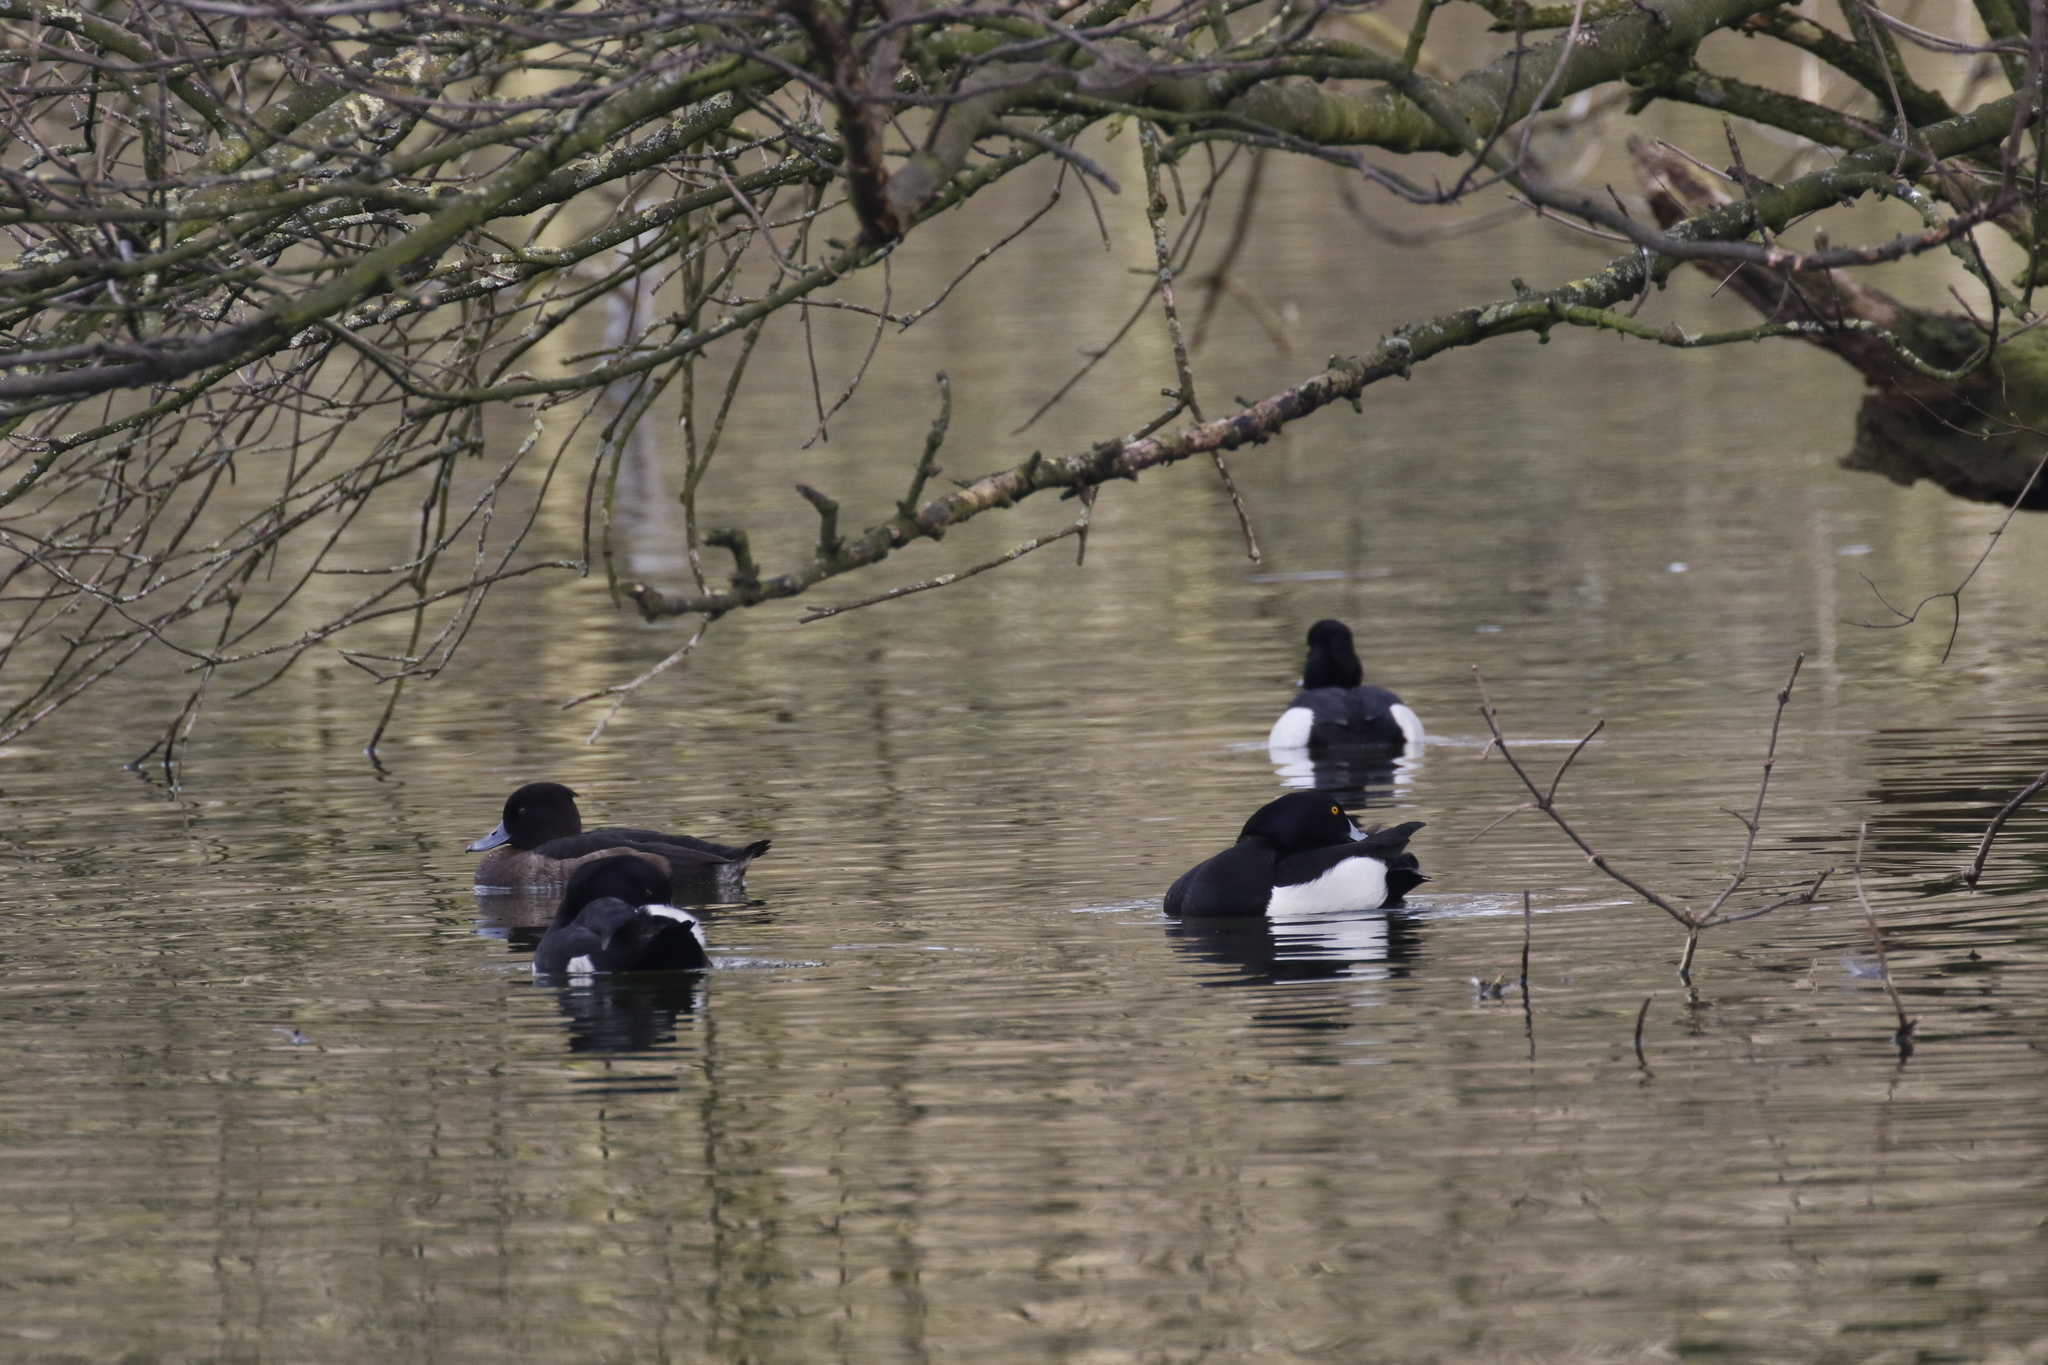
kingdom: Animalia
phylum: Chordata
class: Aves
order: Anseriformes
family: Anatidae
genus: Aythya
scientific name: Aythya fuligula
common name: Tufted duck
